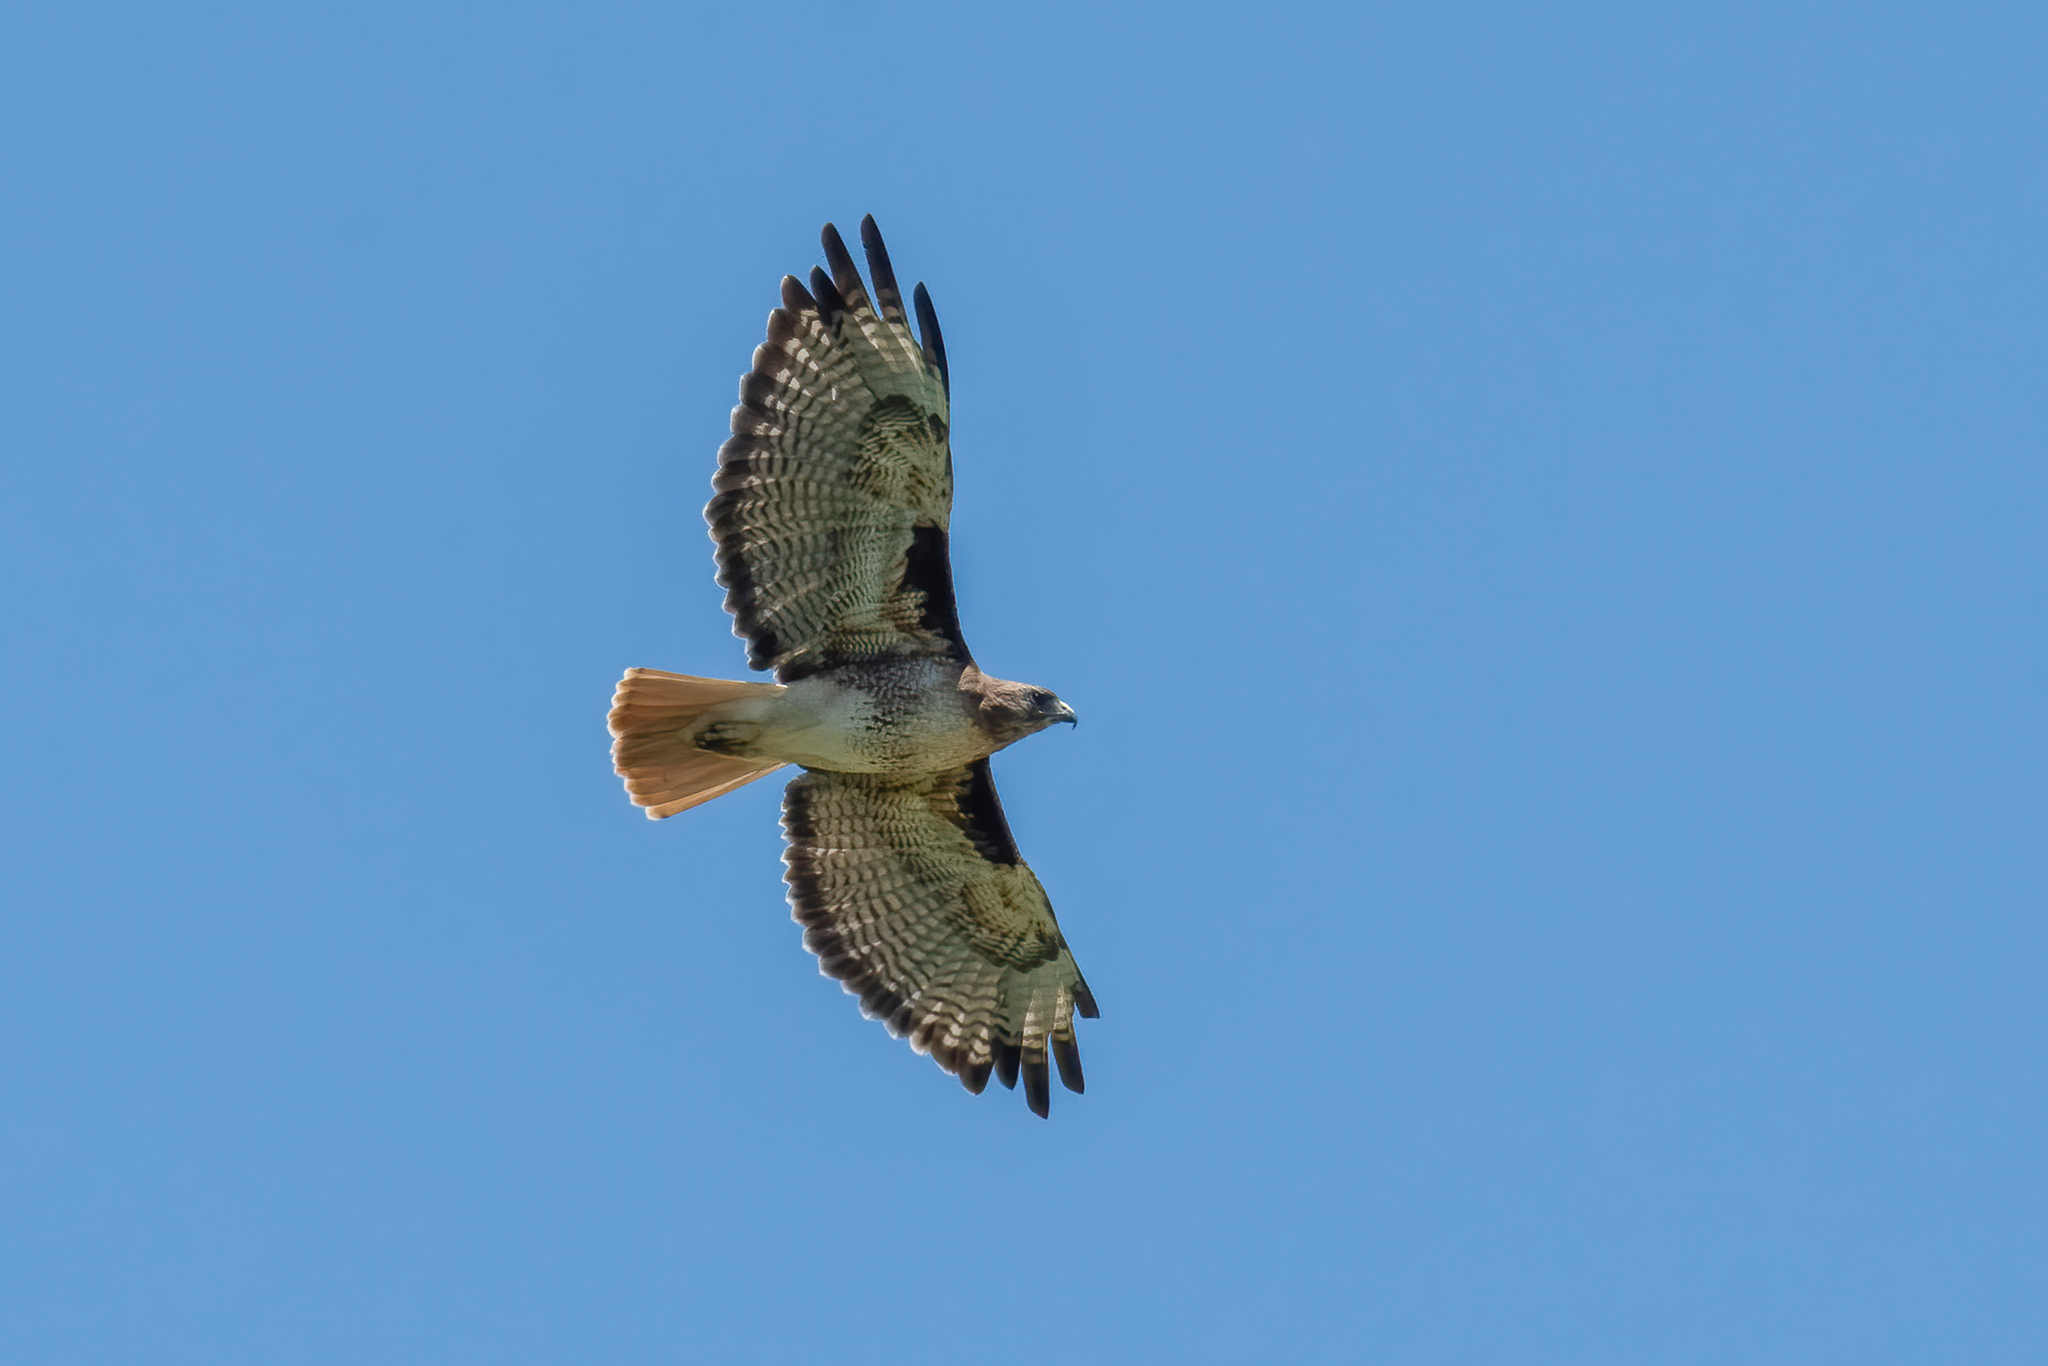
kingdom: Animalia
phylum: Chordata
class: Aves
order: Accipitriformes
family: Accipitridae
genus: Buteo
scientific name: Buteo jamaicensis
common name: Red-tailed hawk
